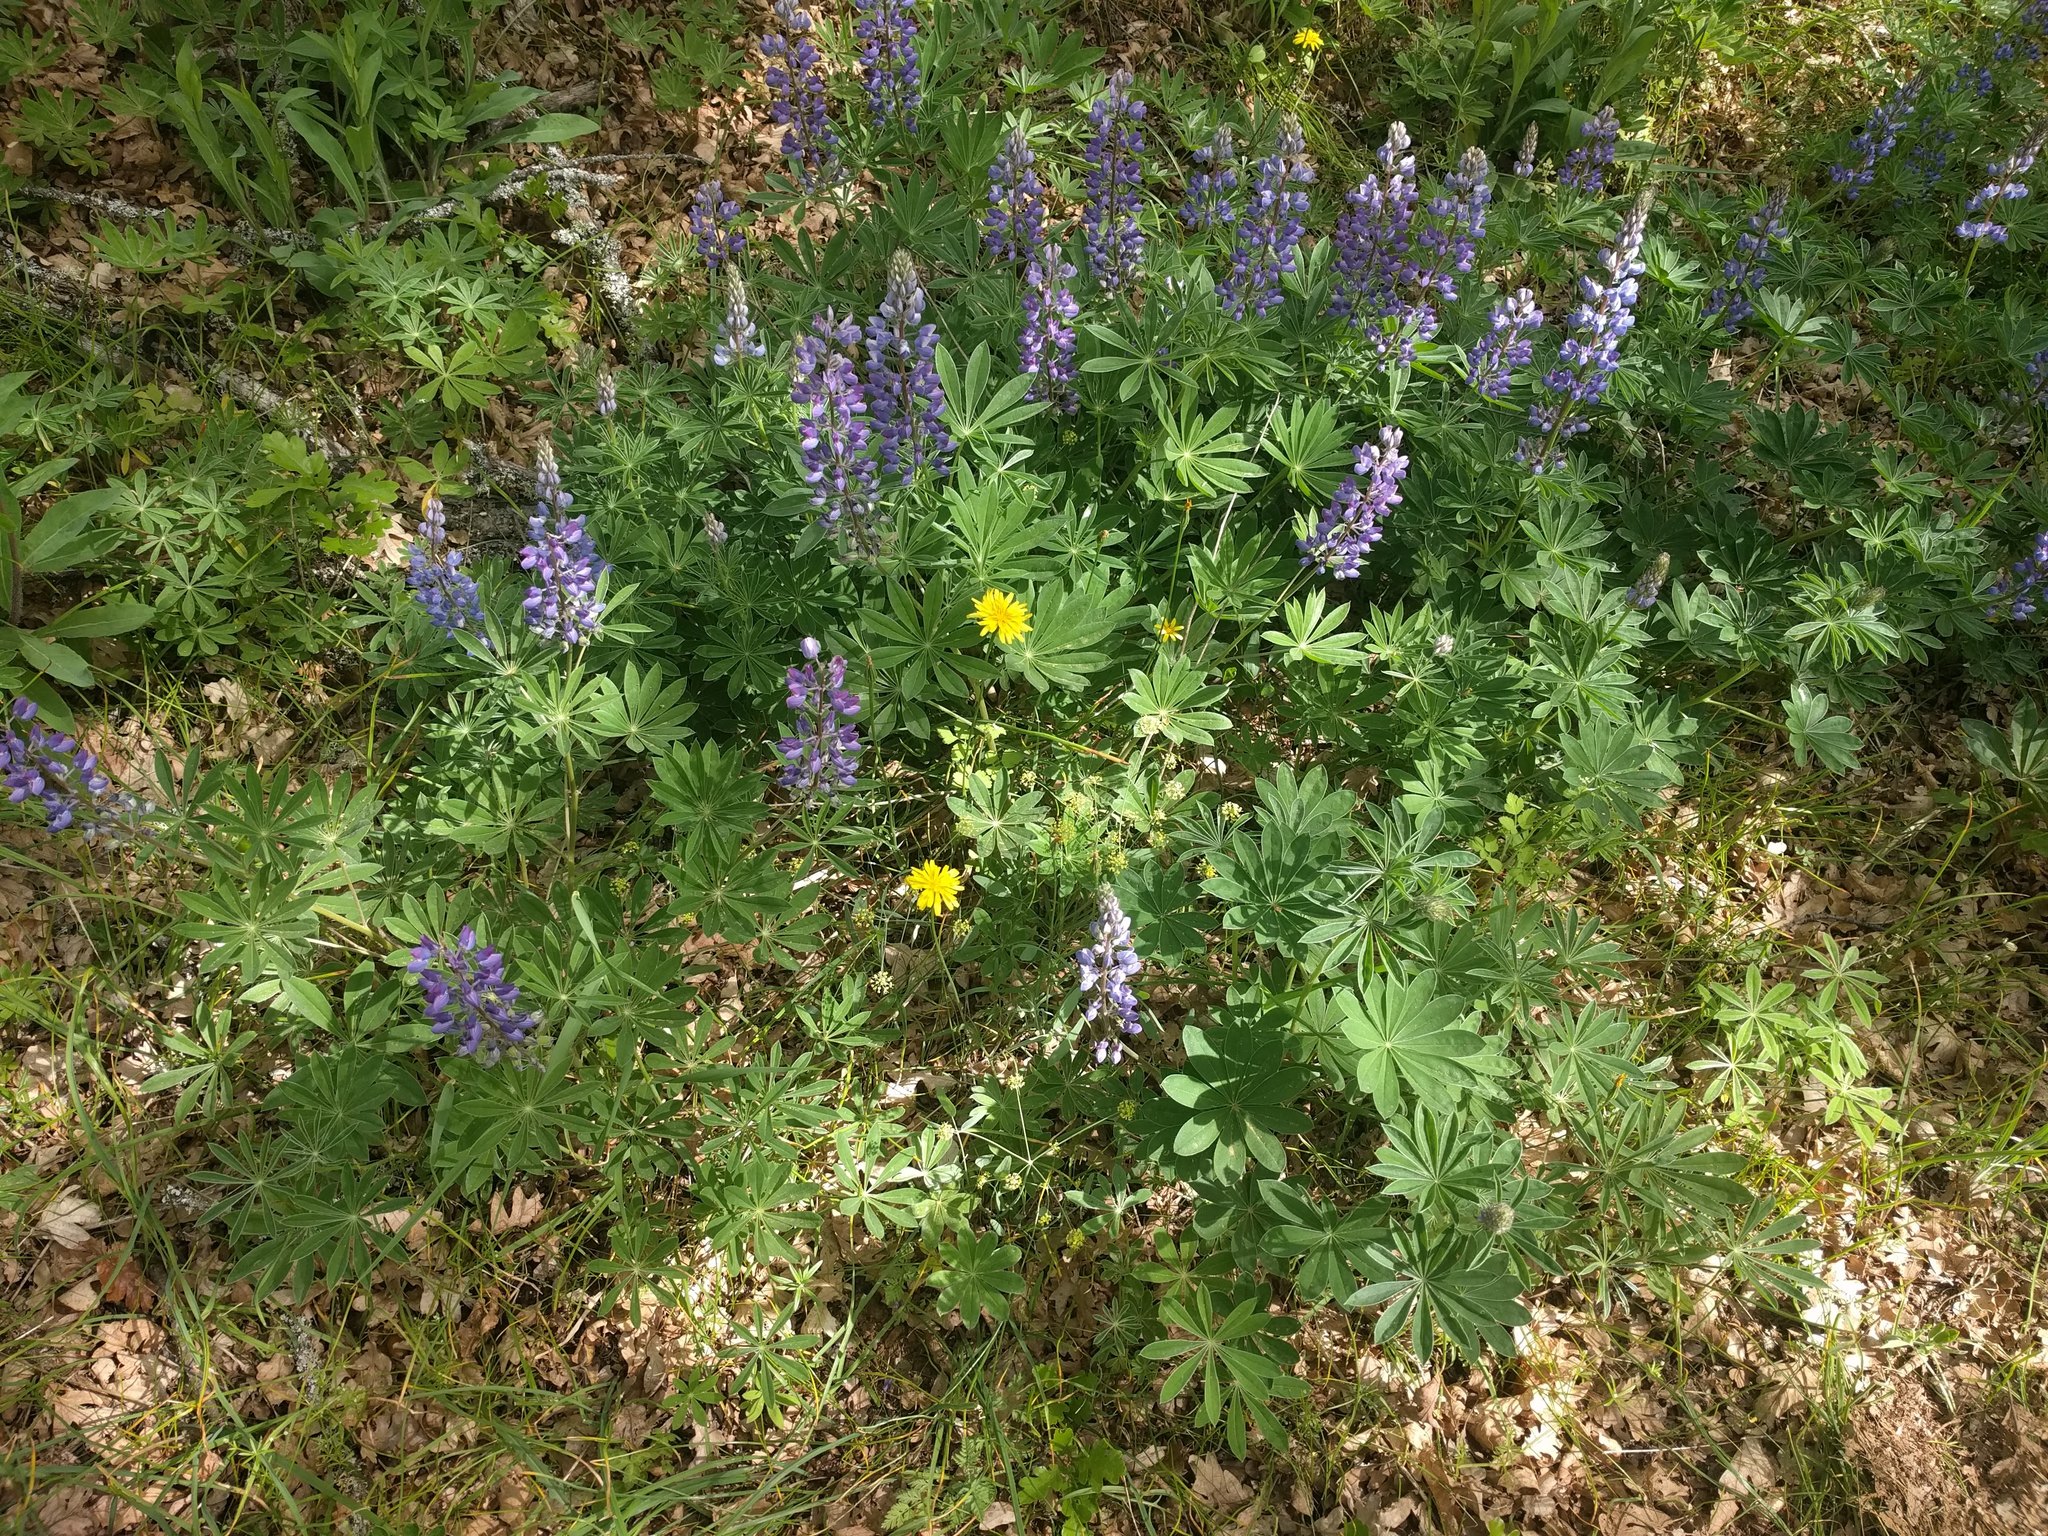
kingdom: Plantae
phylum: Tracheophyta
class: Magnoliopsida
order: Fabales
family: Fabaceae
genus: Lupinus
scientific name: Lupinus latifolius
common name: Broad-leaved lupine
